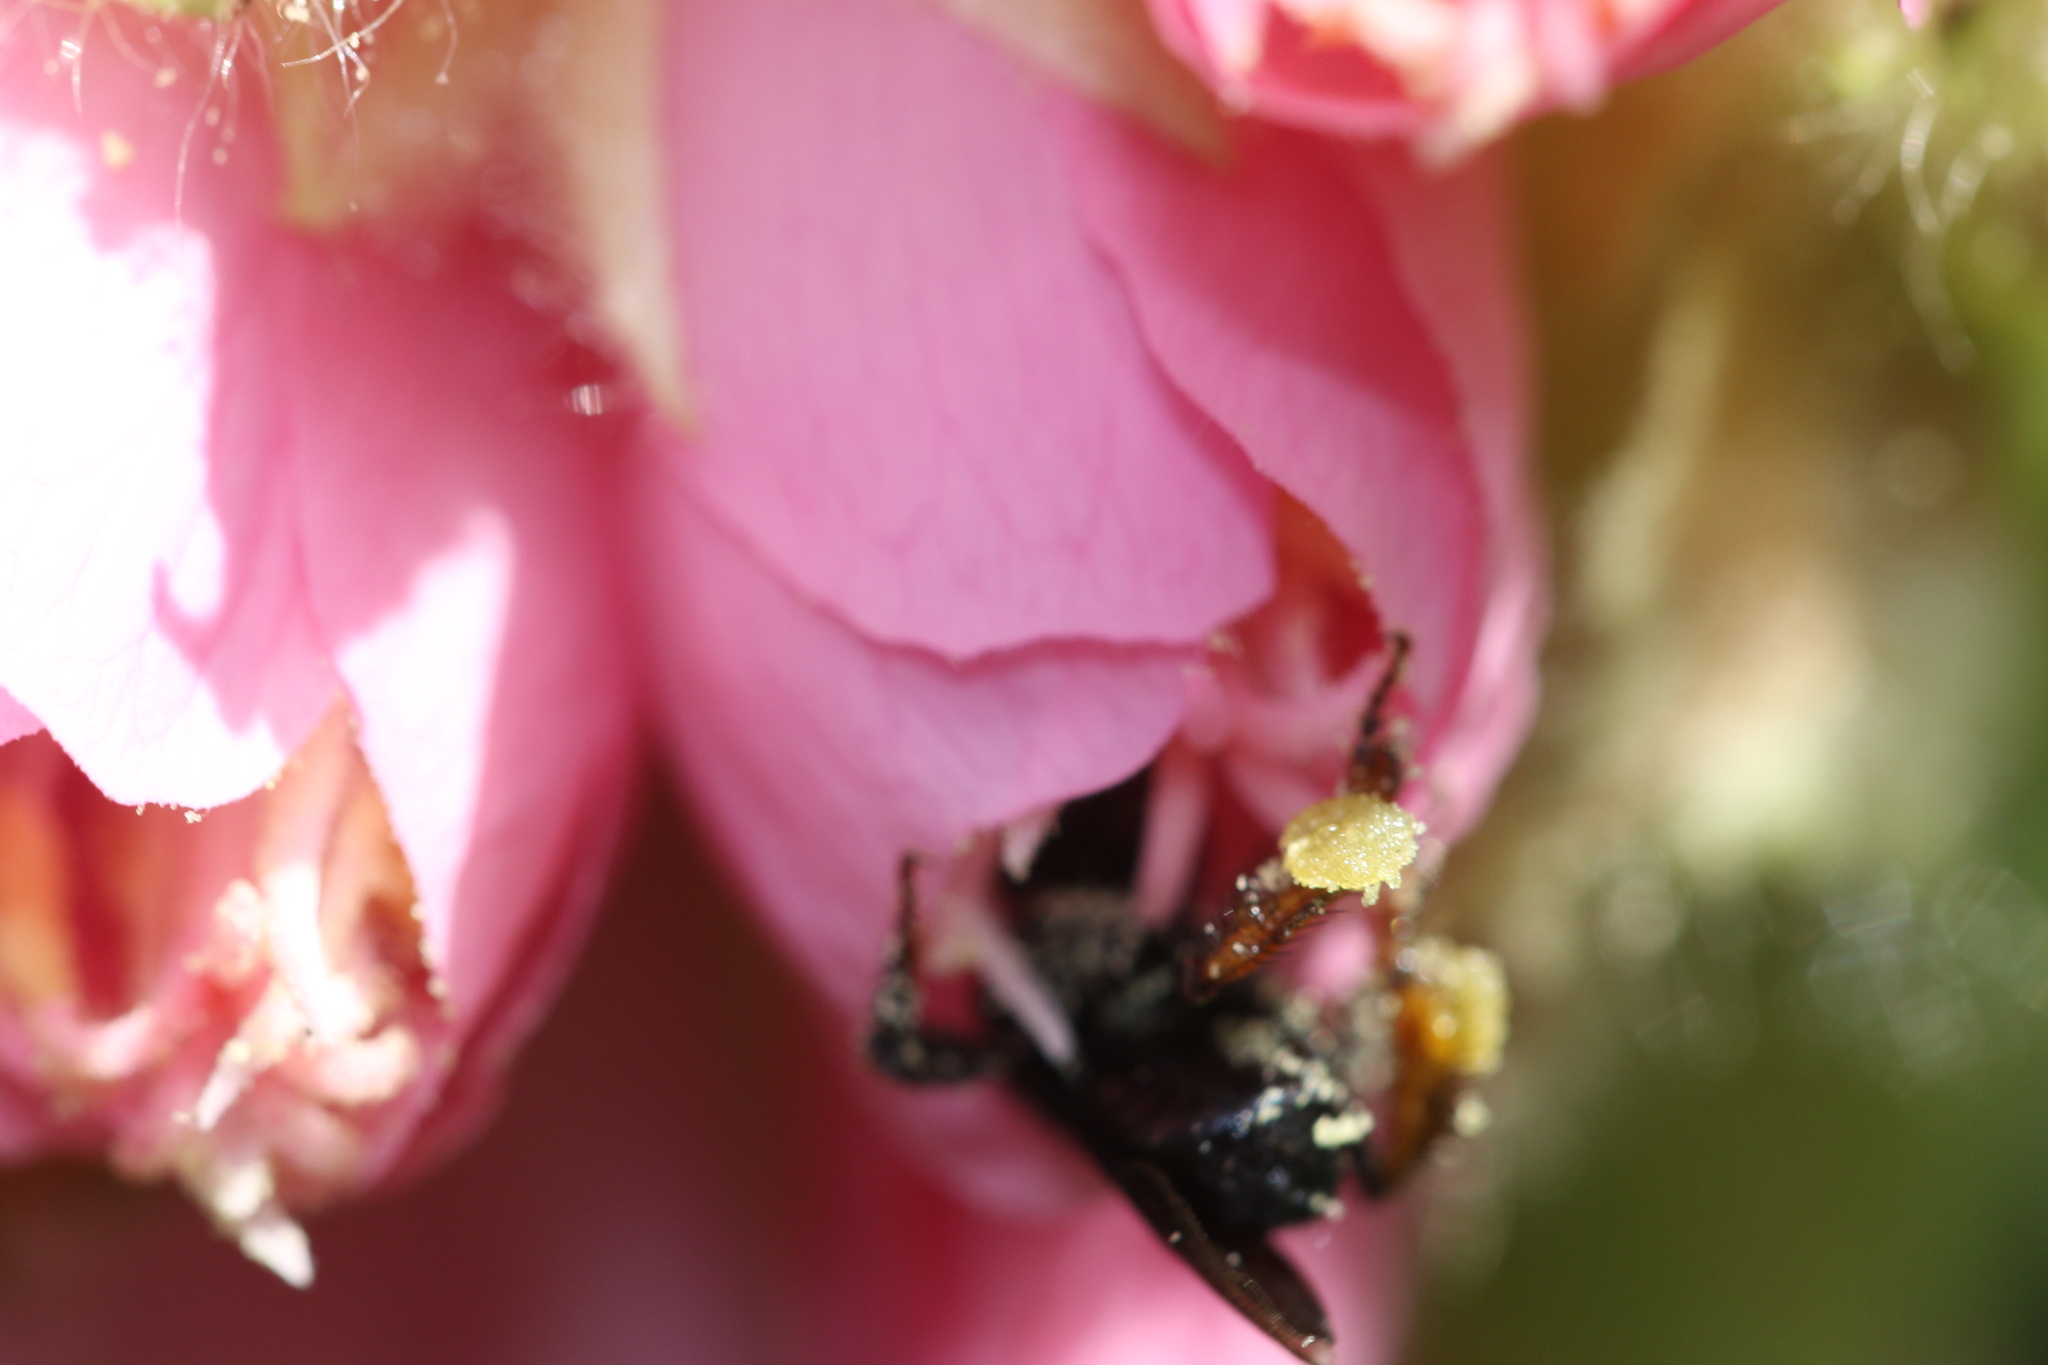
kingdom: Animalia
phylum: Arthropoda
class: Insecta
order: Hymenoptera
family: Apidae
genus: Trigona
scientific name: Trigona spinipes
